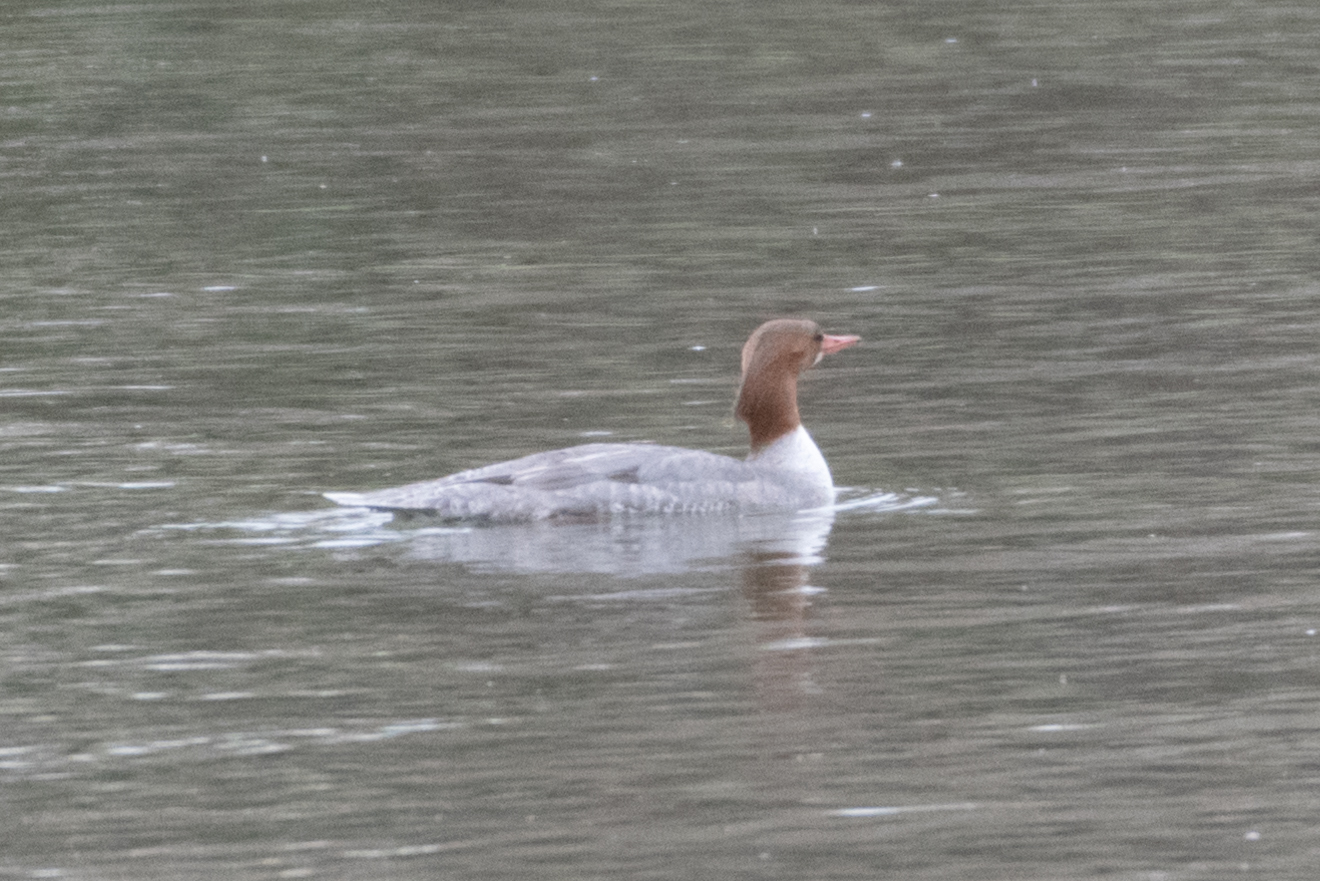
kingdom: Animalia
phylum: Chordata
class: Aves
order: Anseriformes
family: Anatidae
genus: Mergus
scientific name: Mergus merganser
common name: Common merganser
